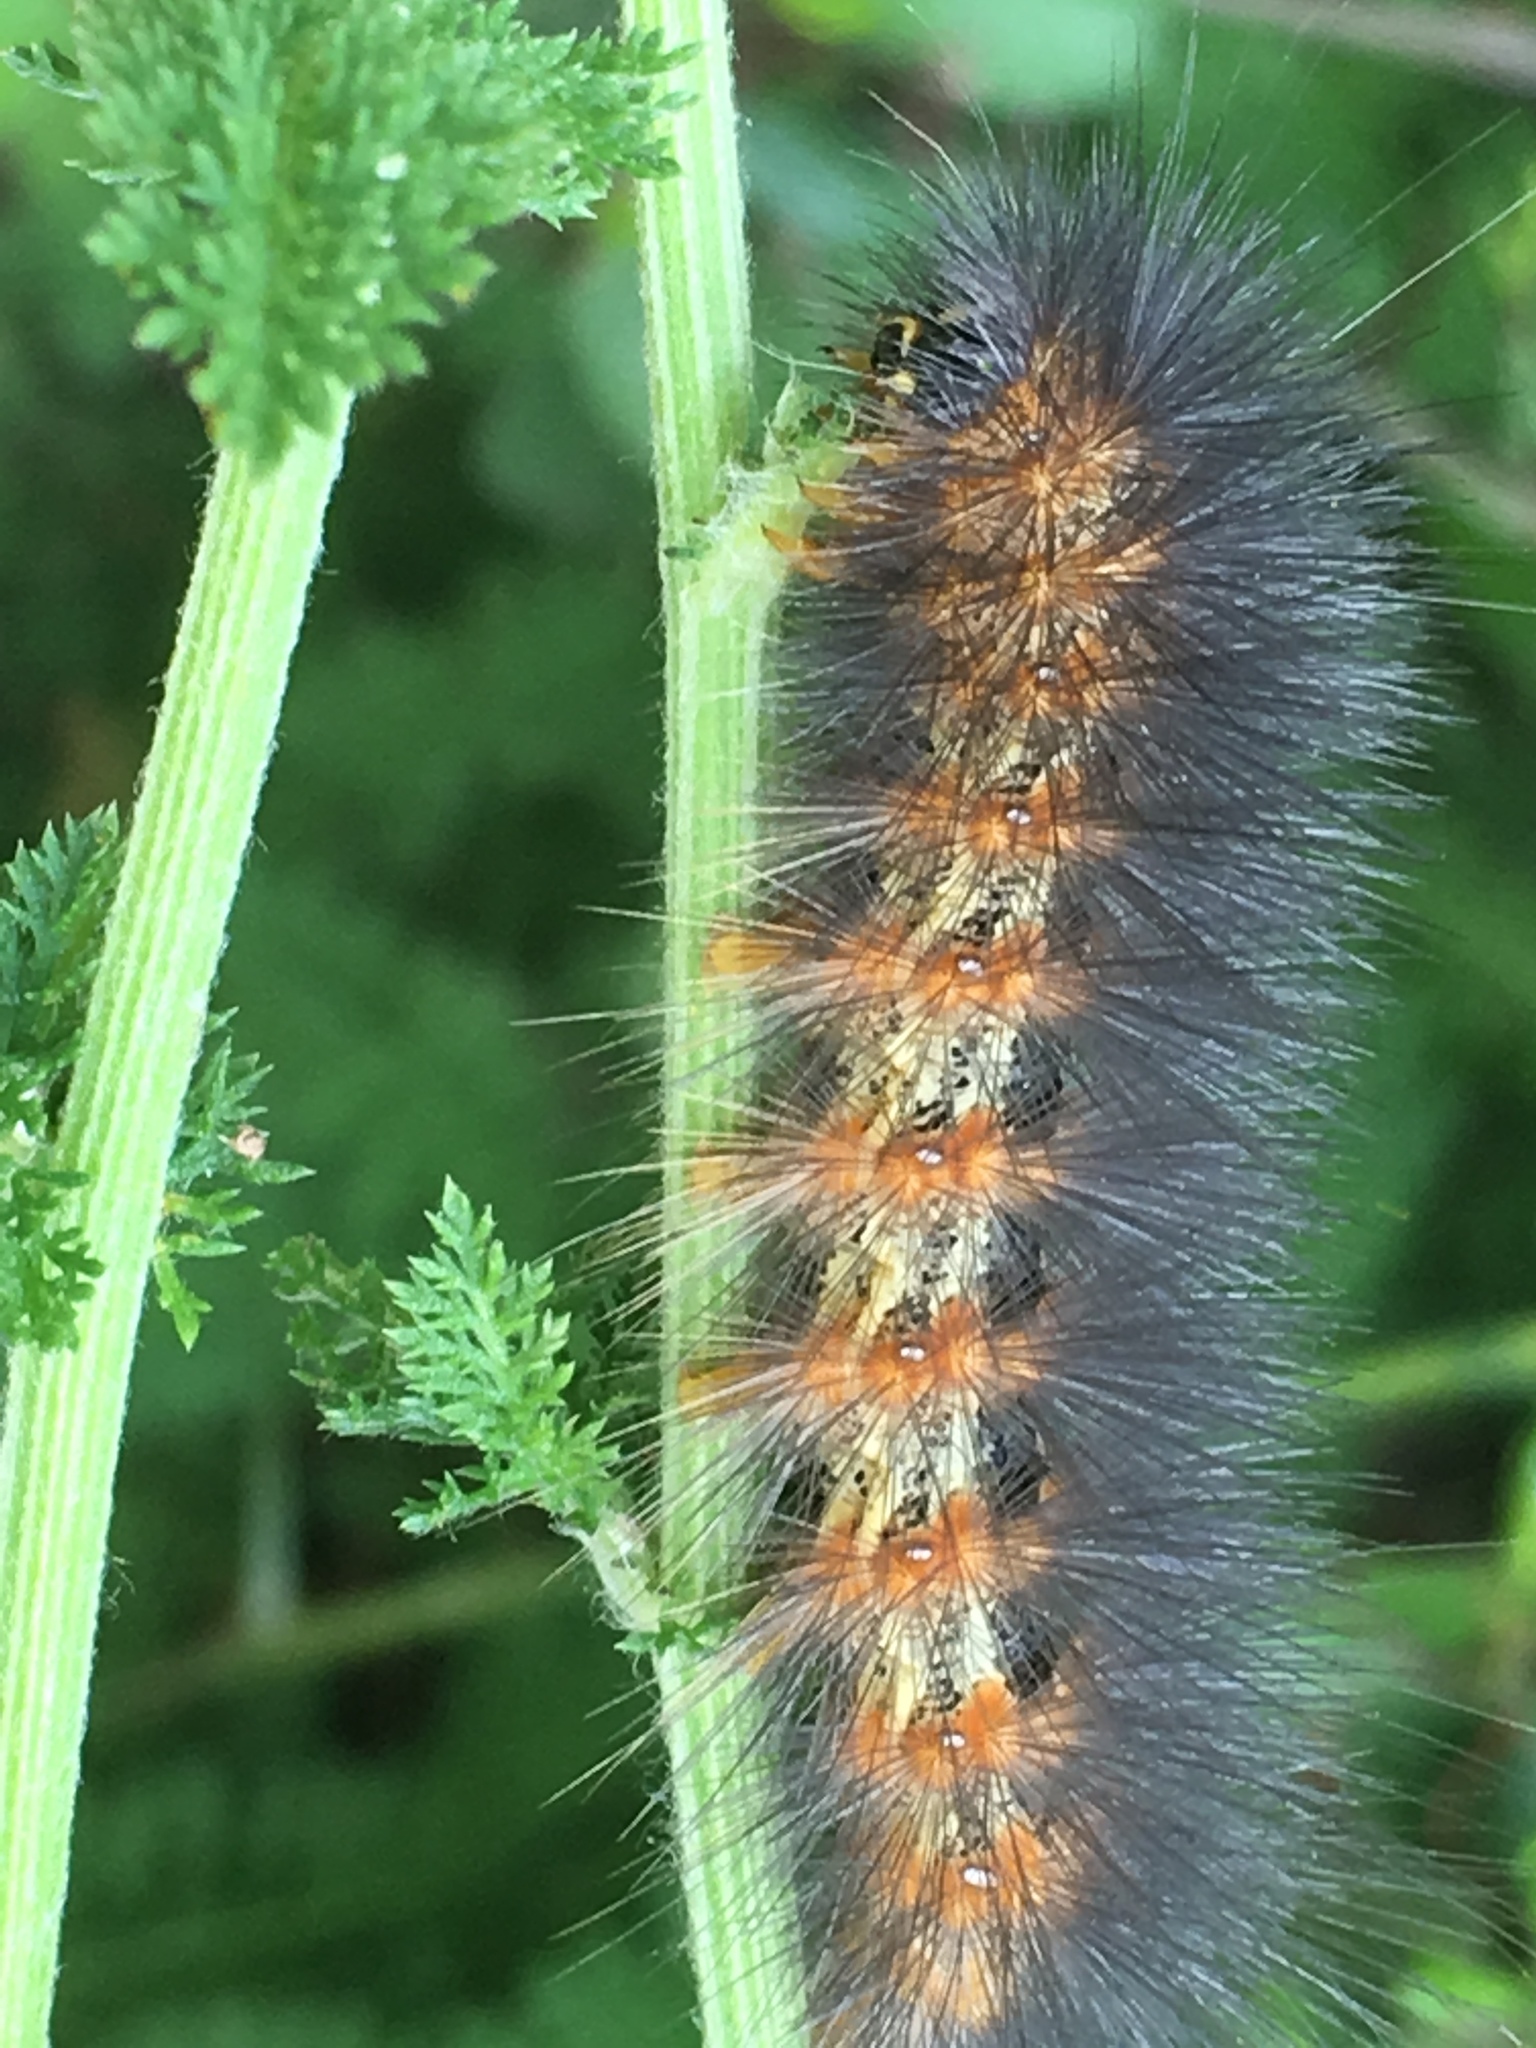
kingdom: Animalia
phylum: Arthropoda
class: Insecta
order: Lepidoptera
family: Erebidae
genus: Estigmene
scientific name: Estigmene acrea
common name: Salt marsh moth
